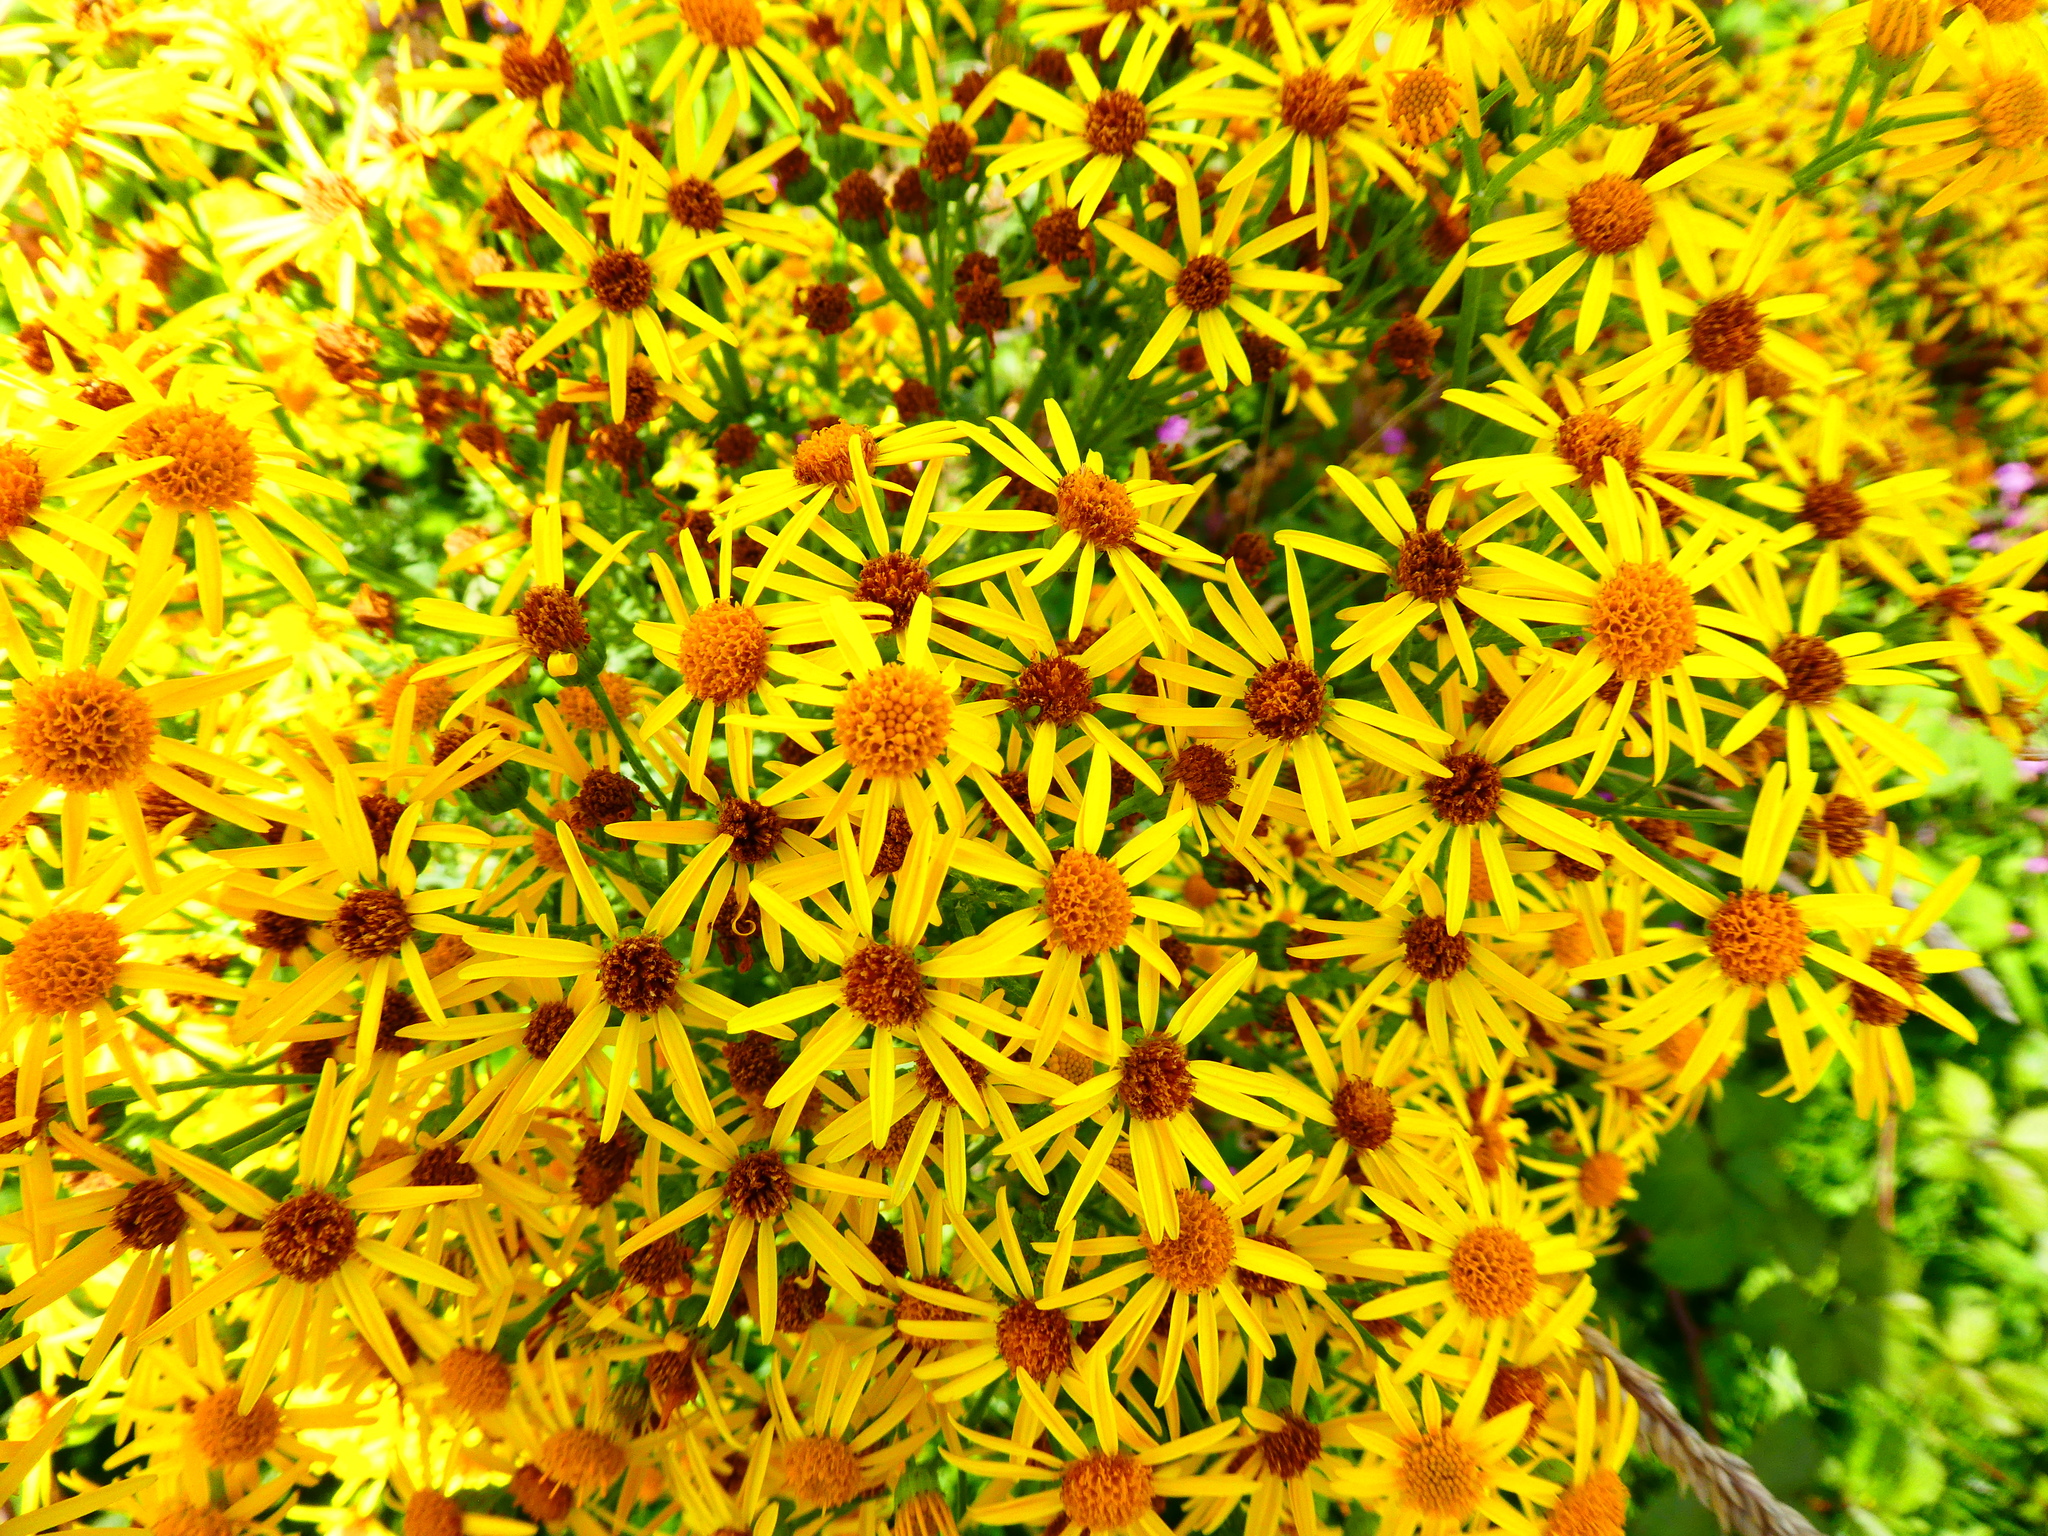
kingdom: Plantae
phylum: Tracheophyta
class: Magnoliopsida
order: Asterales
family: Asteraceae
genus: Jacobaea
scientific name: Jacobaea vulgaris
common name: Stinking willie
